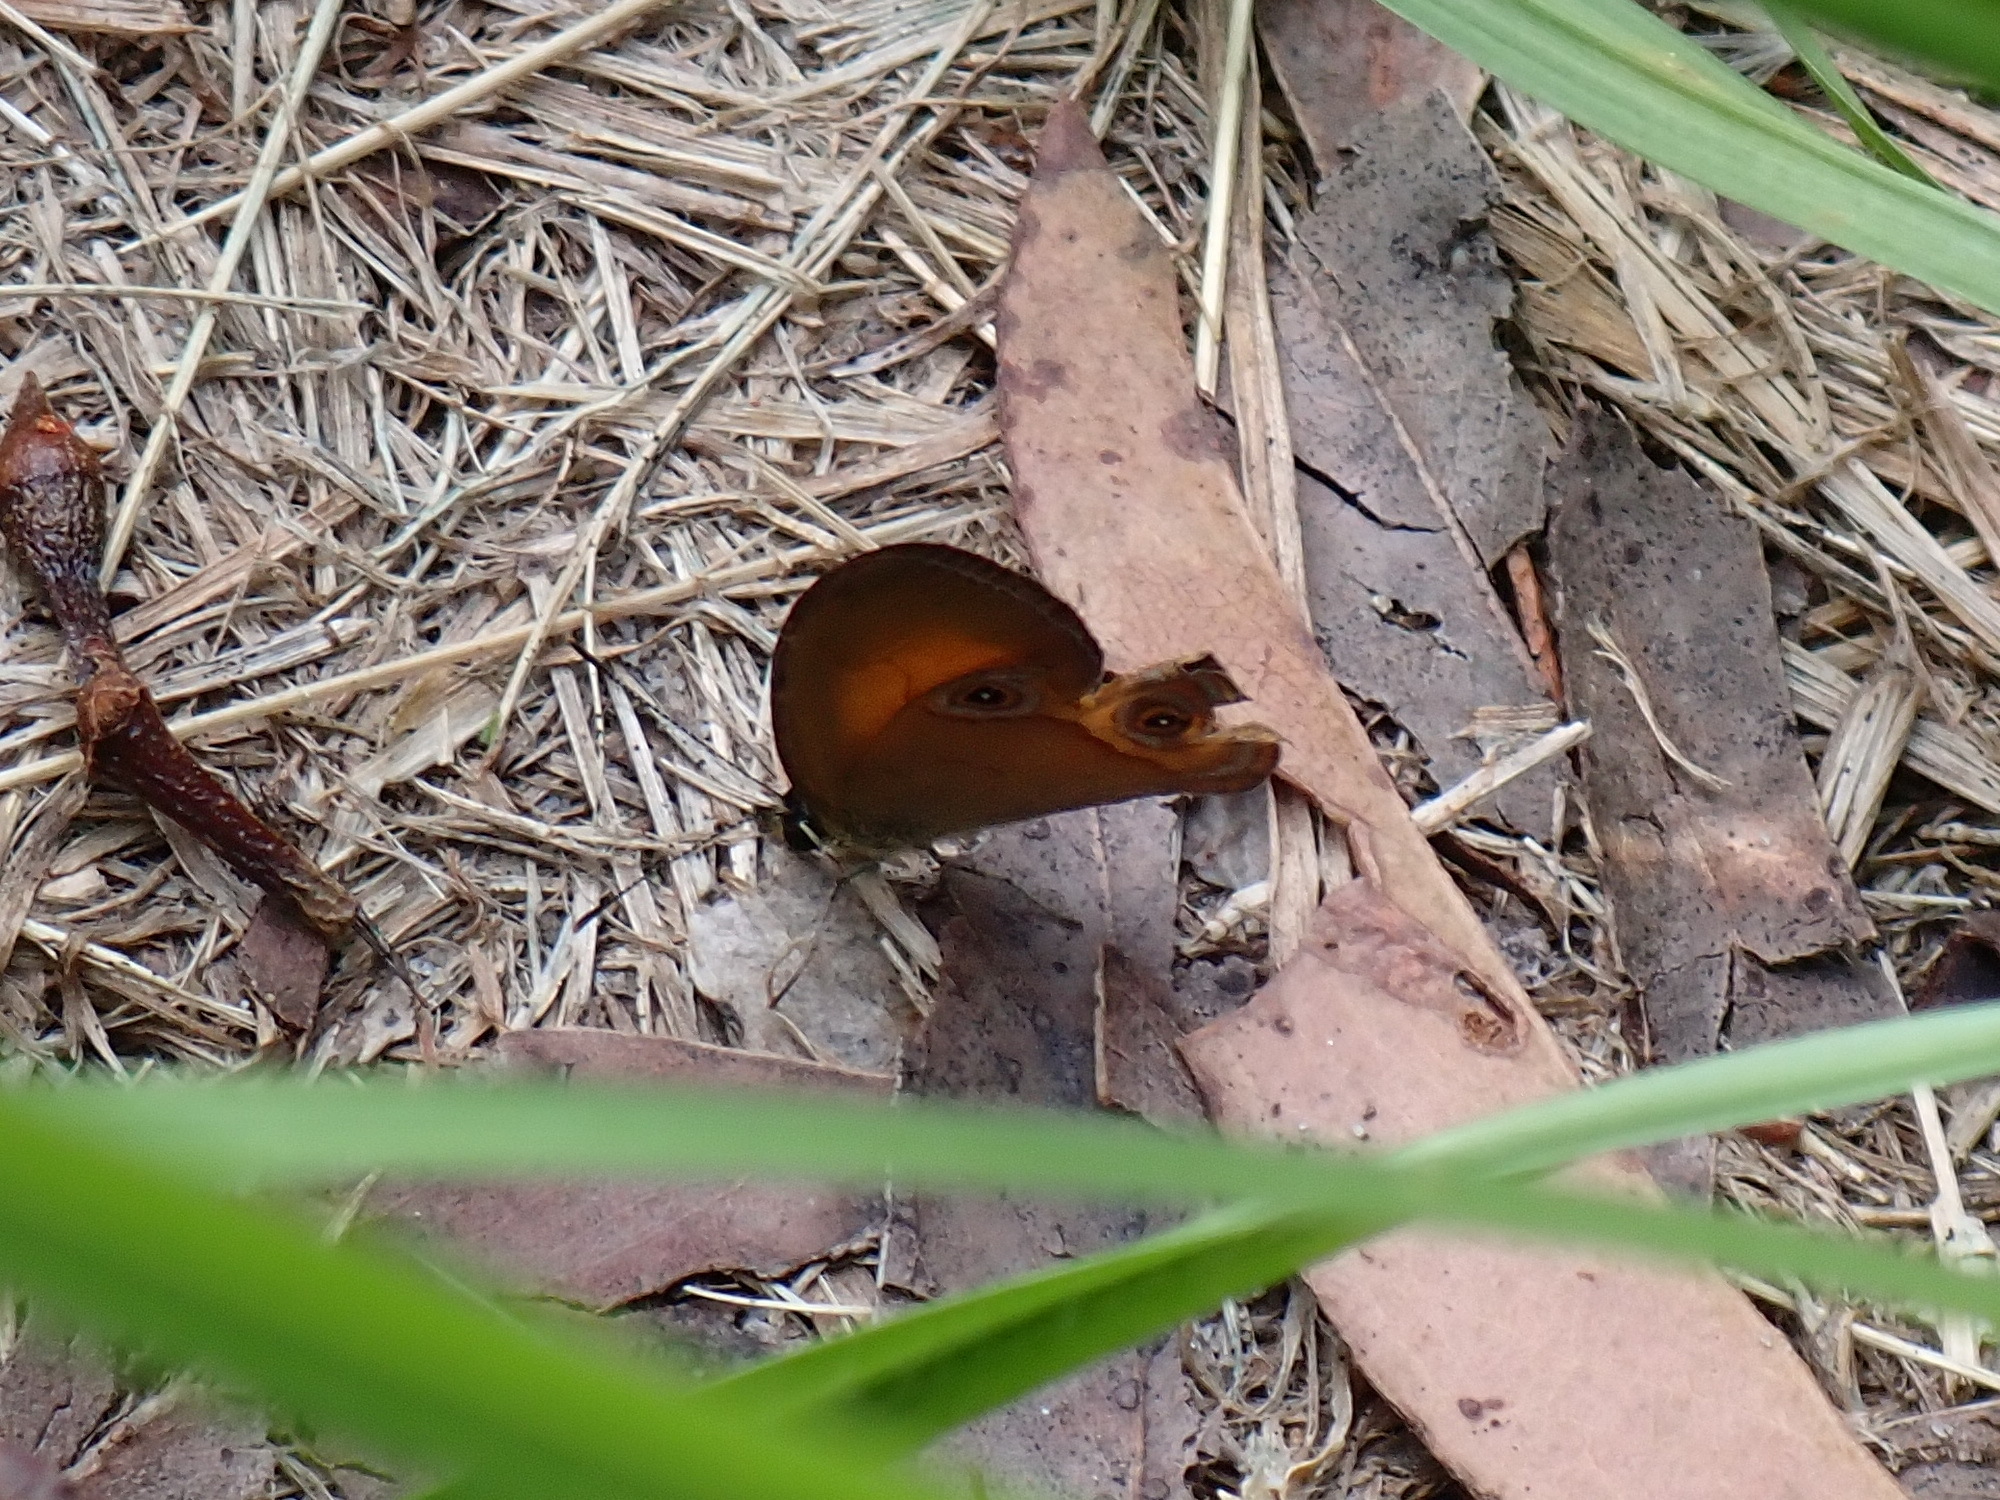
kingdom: Animalia
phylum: Arthropoda
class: Insecta
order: Lepidoptera
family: Nymphalidae
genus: Hypocysta
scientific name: Hypocysta adiante
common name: Orange ringlet
